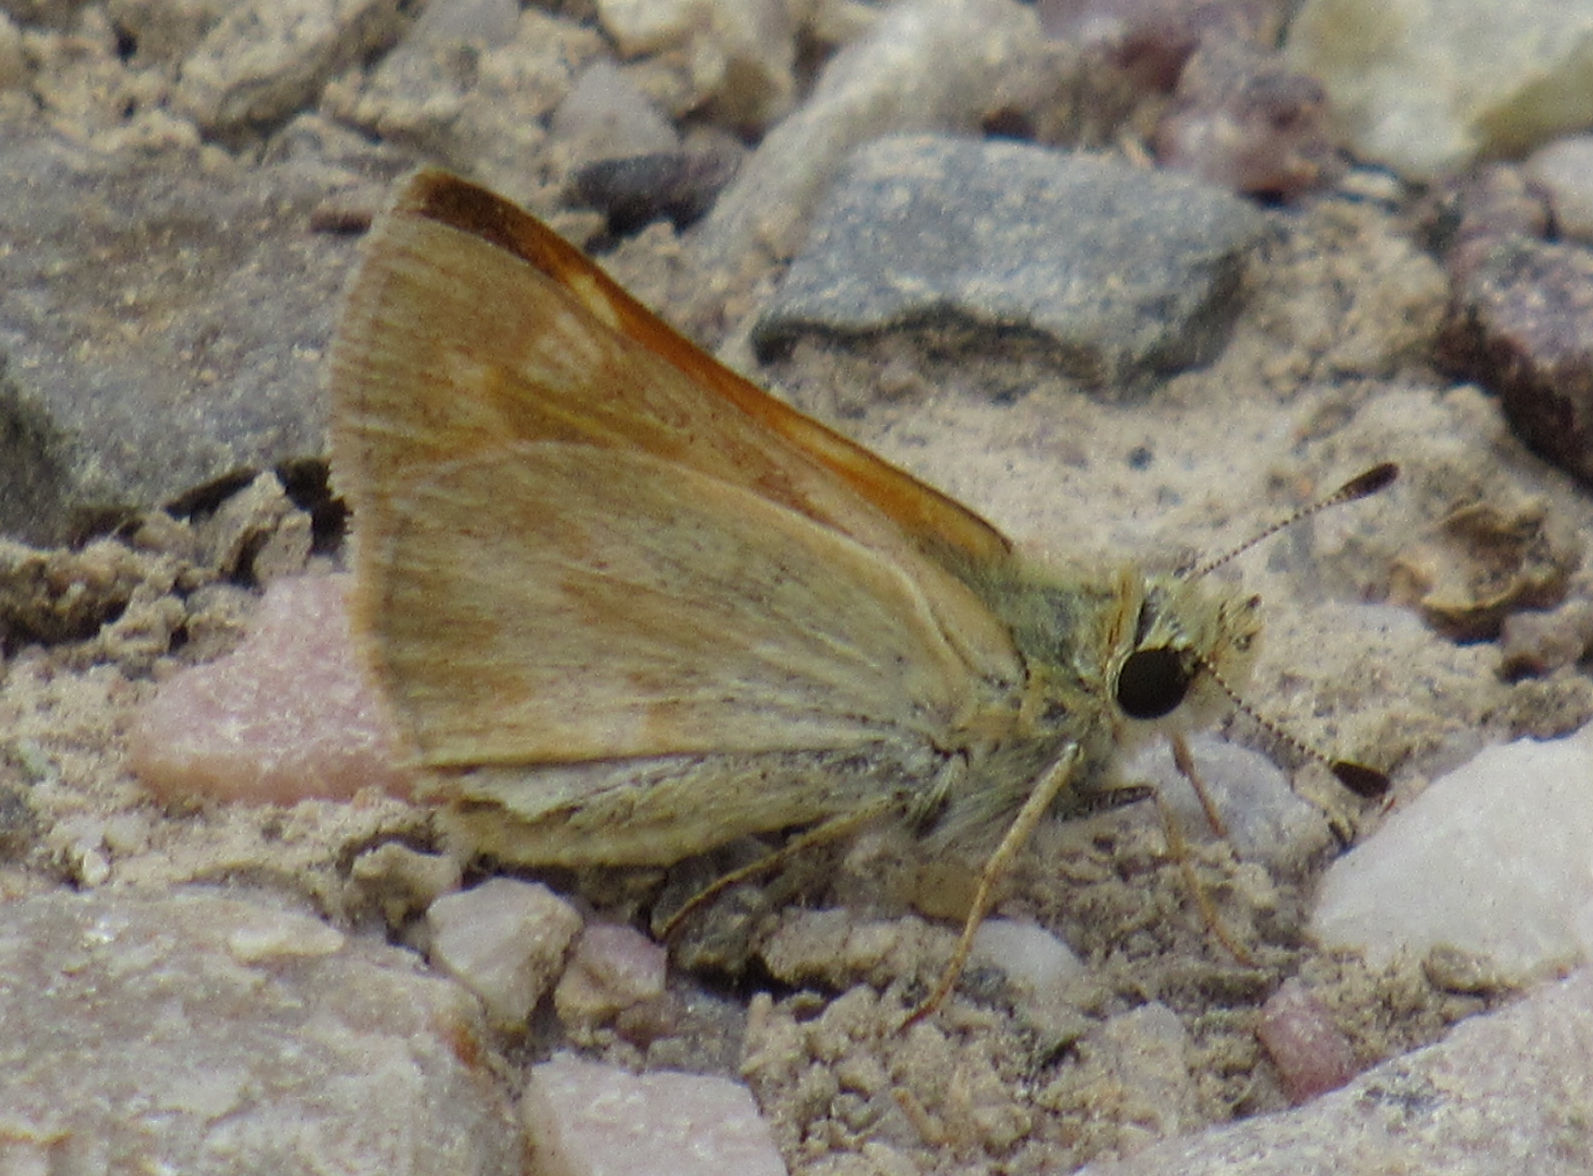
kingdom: Animalia
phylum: Arthropoda
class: Insecta
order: Lepidoptera
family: Hesperiidae
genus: Ochlodes
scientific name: Ochlodes sylvanoides
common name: Woodland skipper
